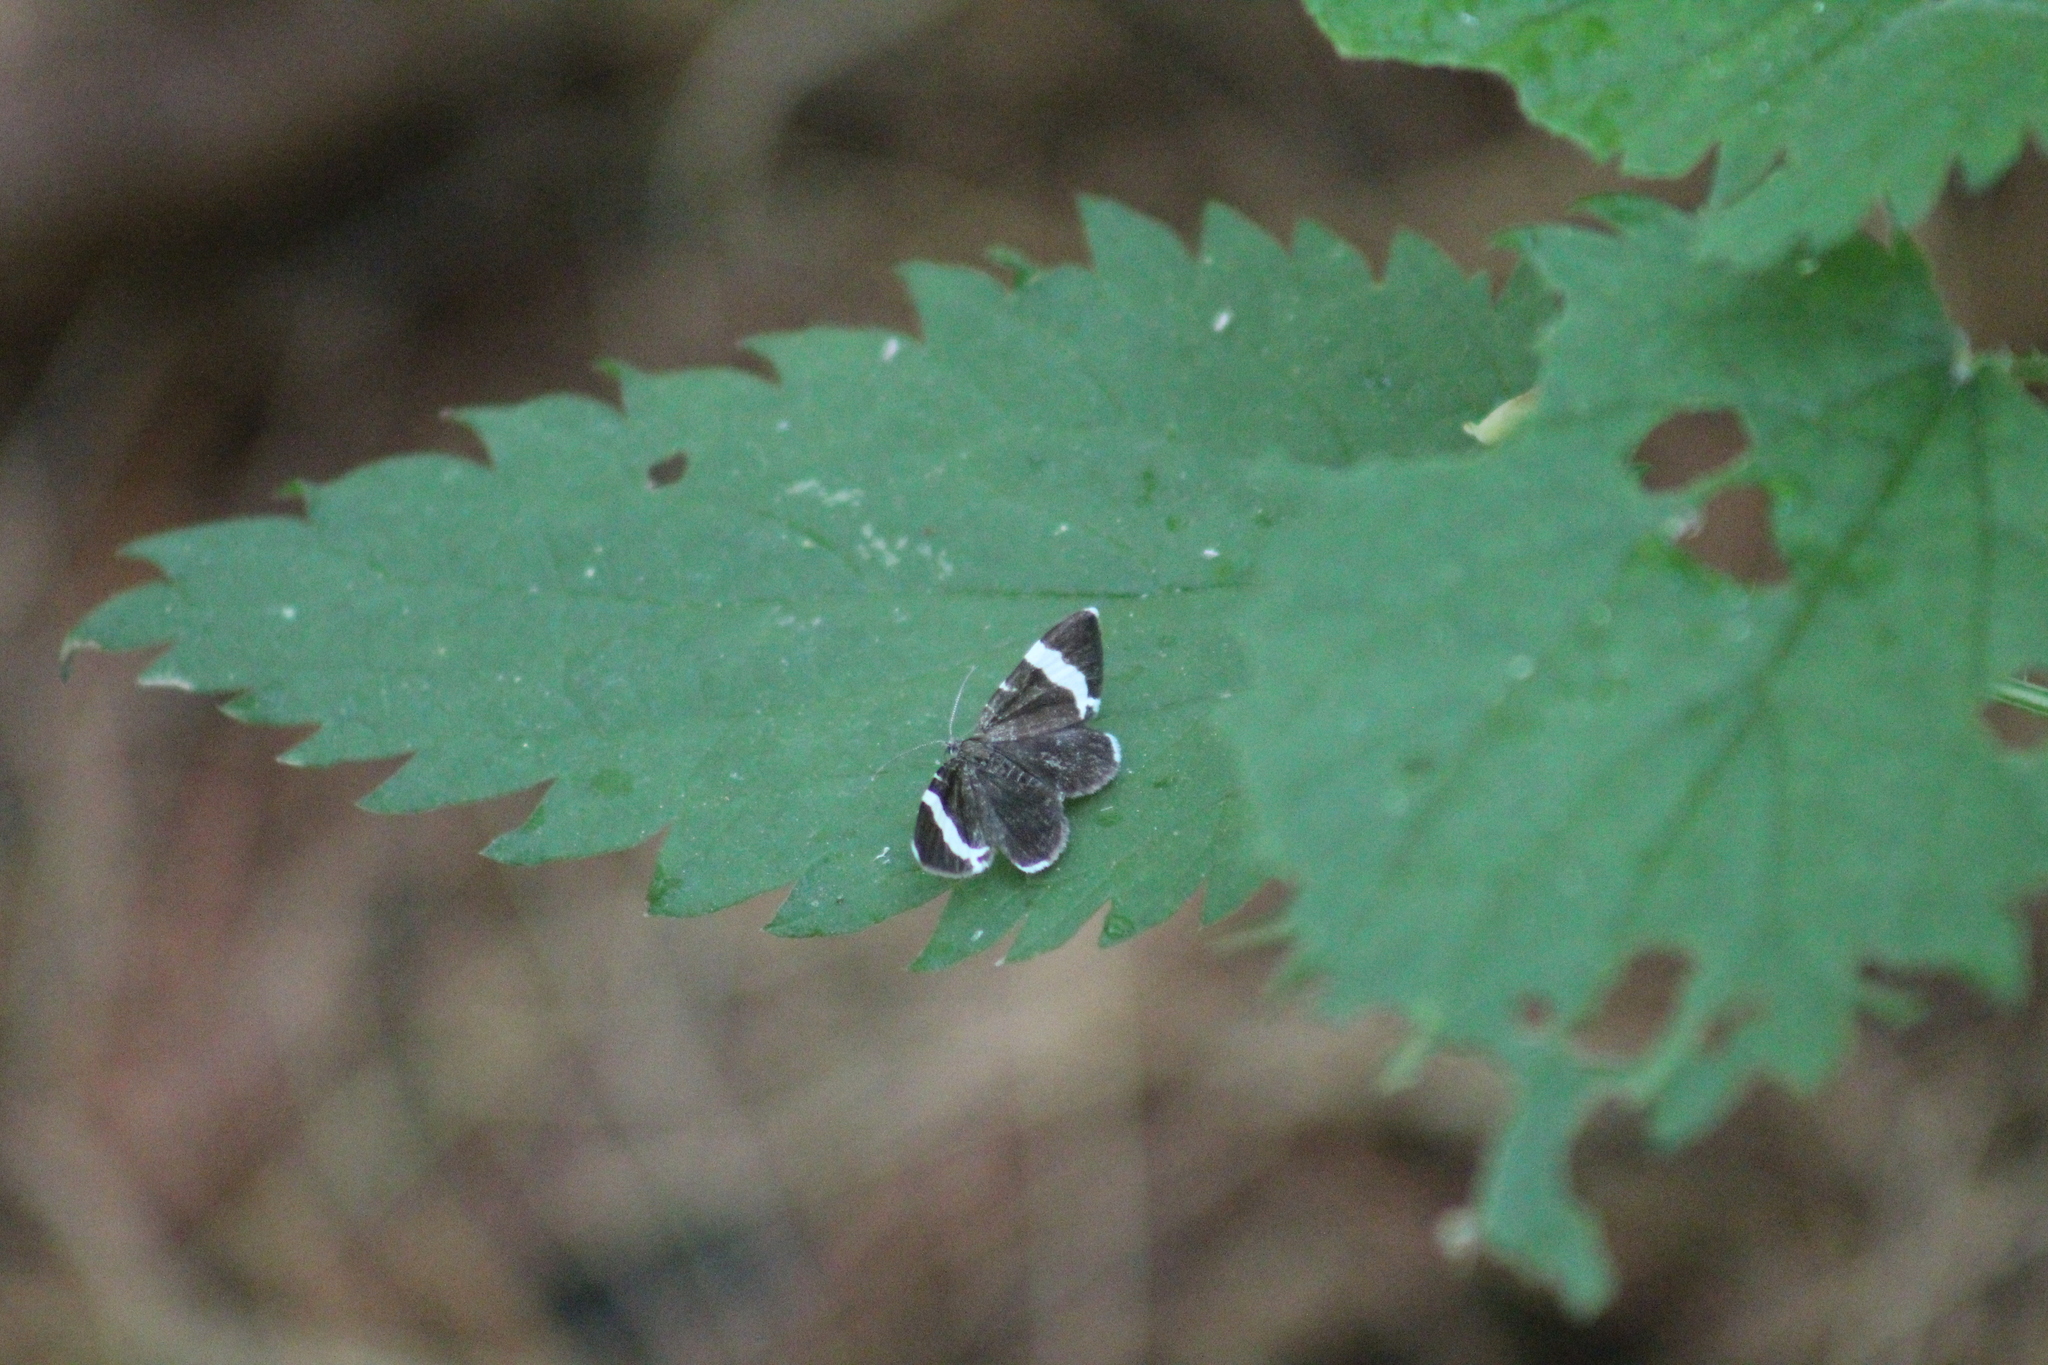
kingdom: Animalia
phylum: Arthropoda
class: Insecta
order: Lepidoptera
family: Geometridae
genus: Trichodezia
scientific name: Trichodezia albovittata
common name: White striped black
